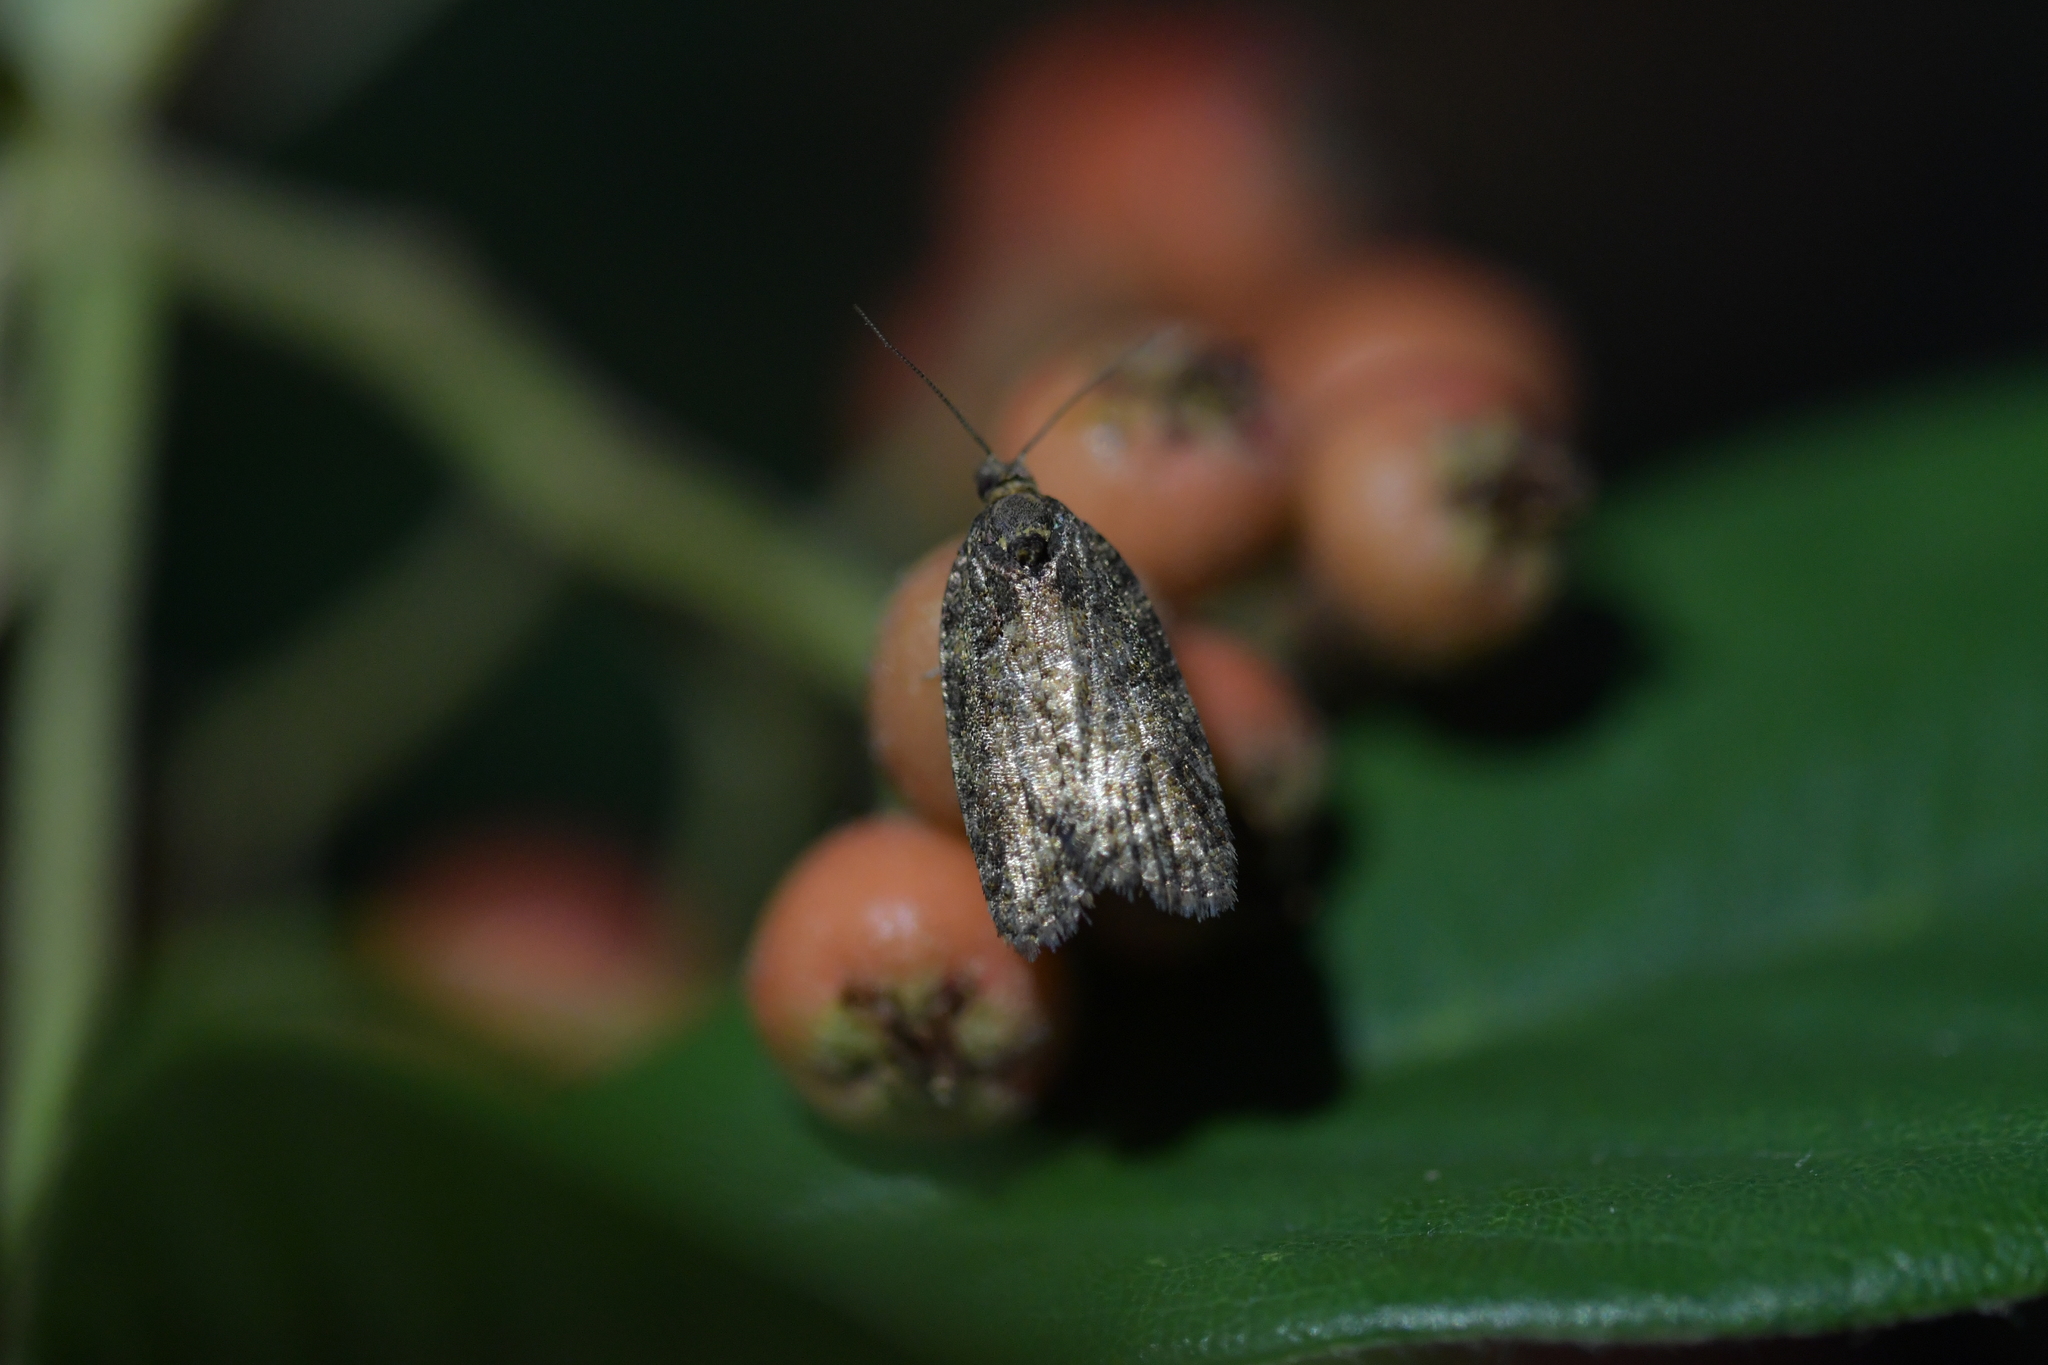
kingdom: Animalia
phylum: Arthropoda
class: Insecta
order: Lepidoptera
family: Tortricidae
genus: Capua
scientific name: Capua intractana
